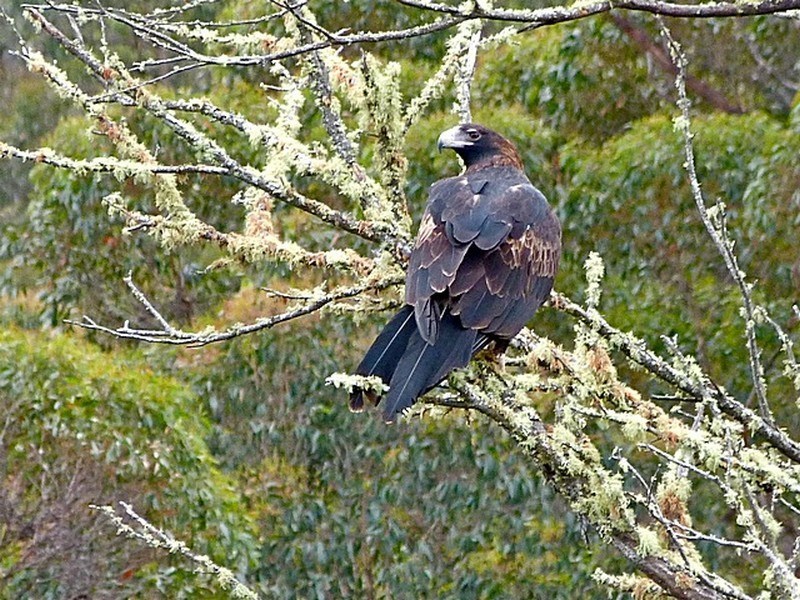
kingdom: Animalia
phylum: Chordata
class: Aves
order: Accipitriformes
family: Accipitridae
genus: Aquila
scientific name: Aquila audax
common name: Wedge-tailed eagle
